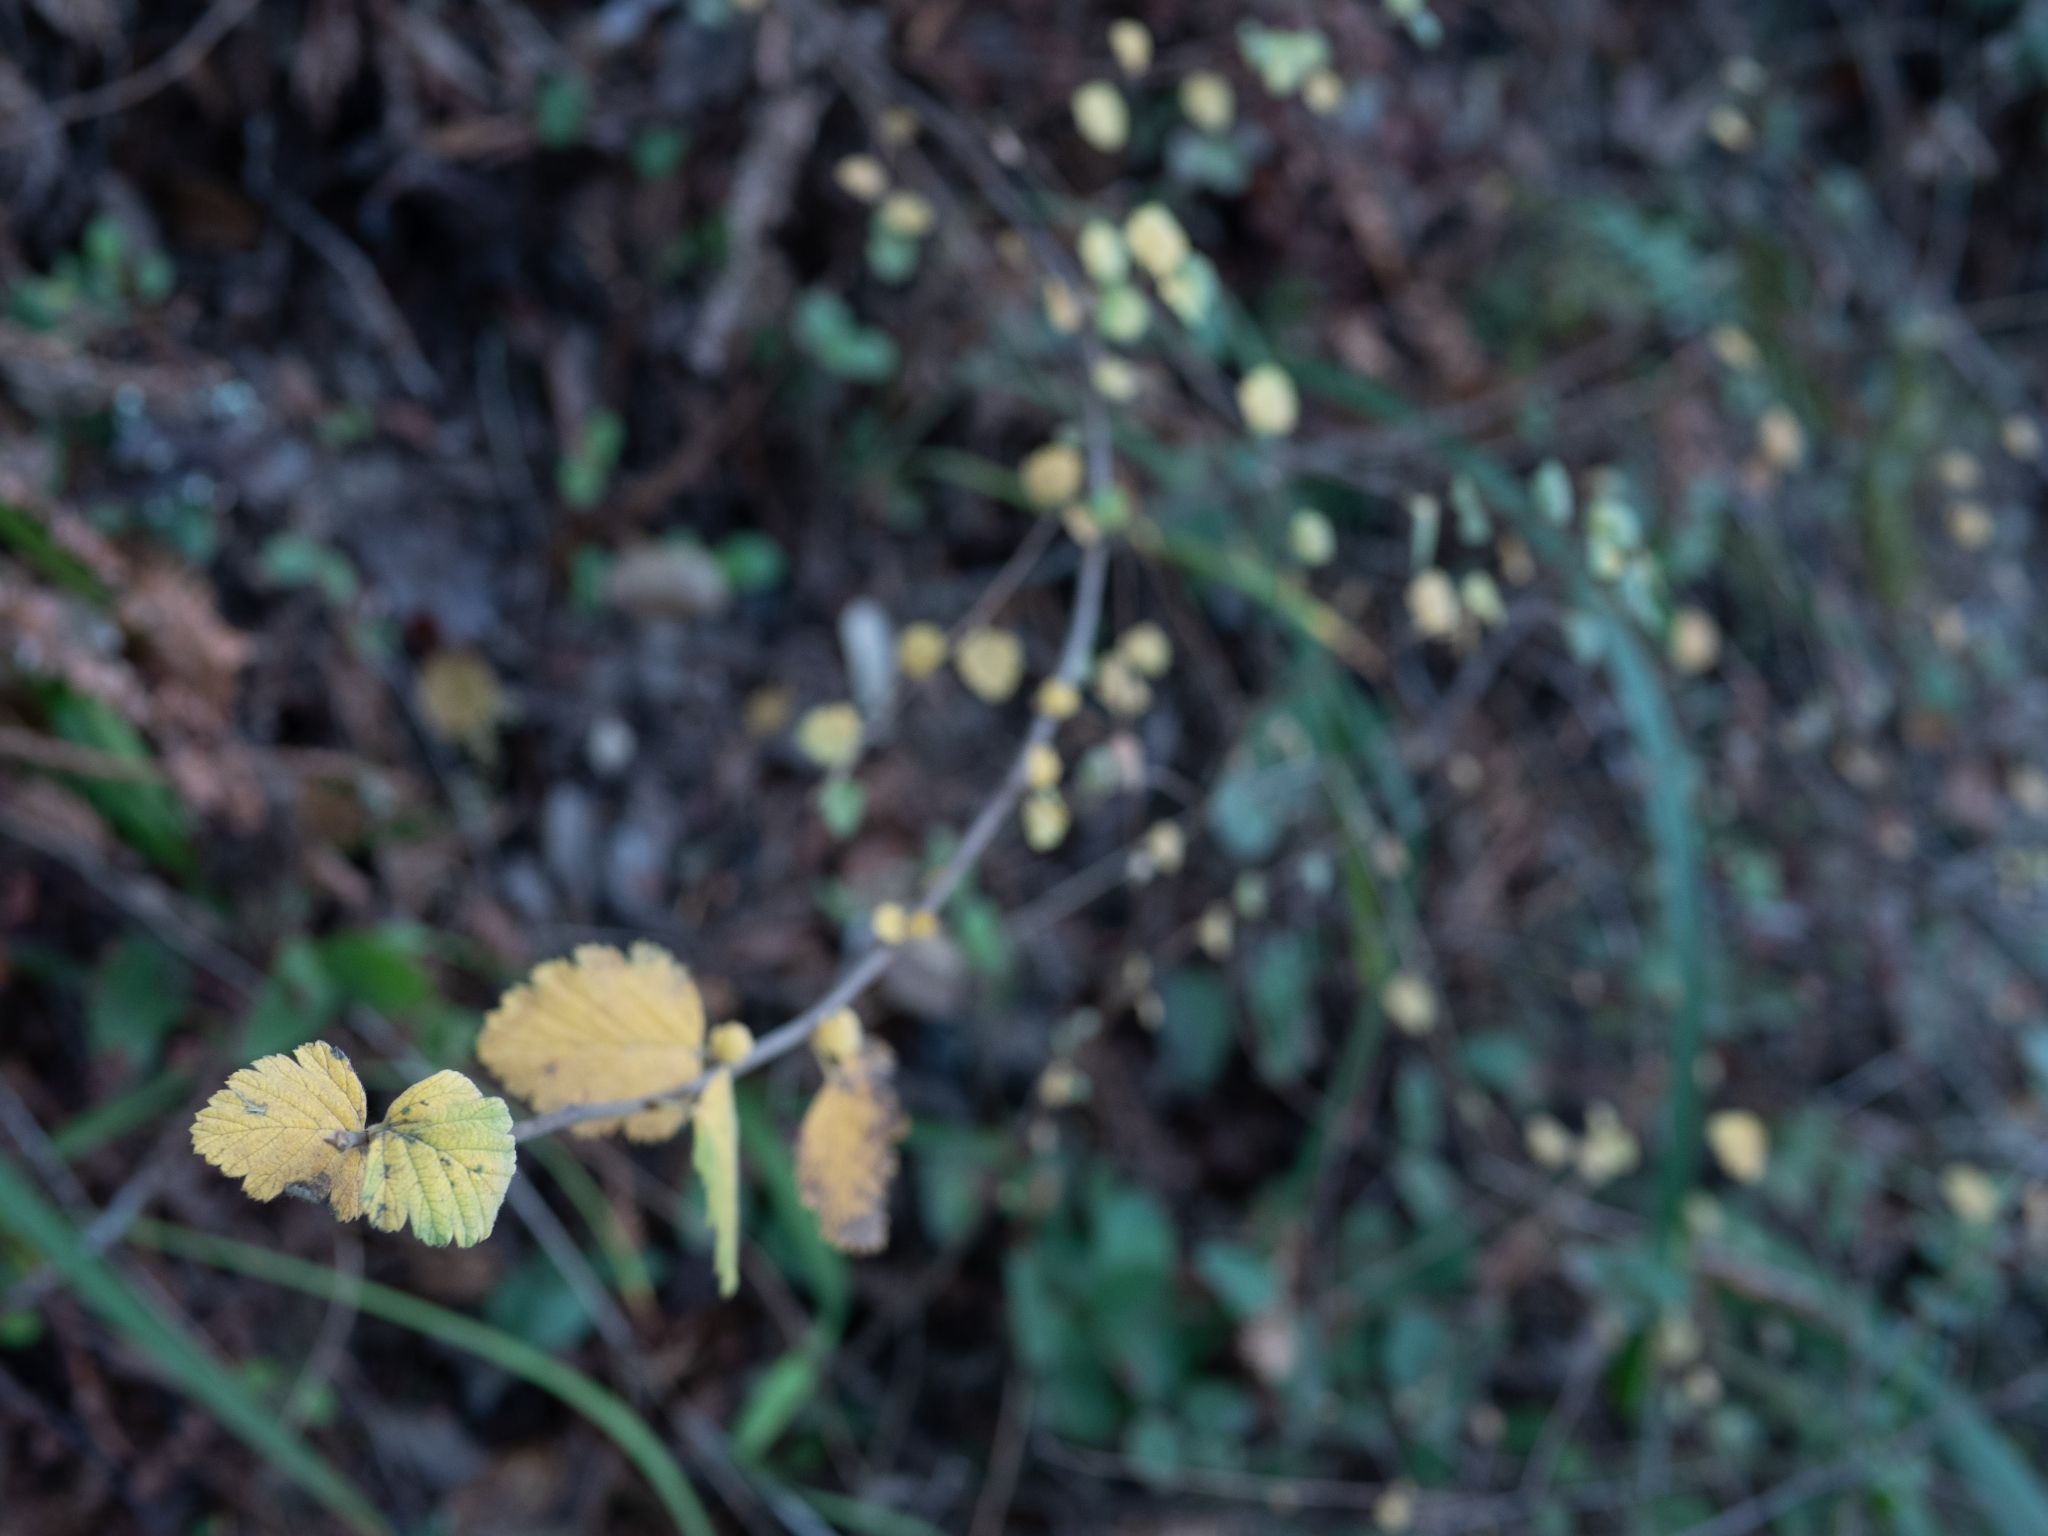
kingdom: Plantae
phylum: Tracheophyta
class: Magnoliopsida
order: Rosales
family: Rosaceae
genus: Holodiscus
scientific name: Holodiscus discolor
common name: Oceanspray
